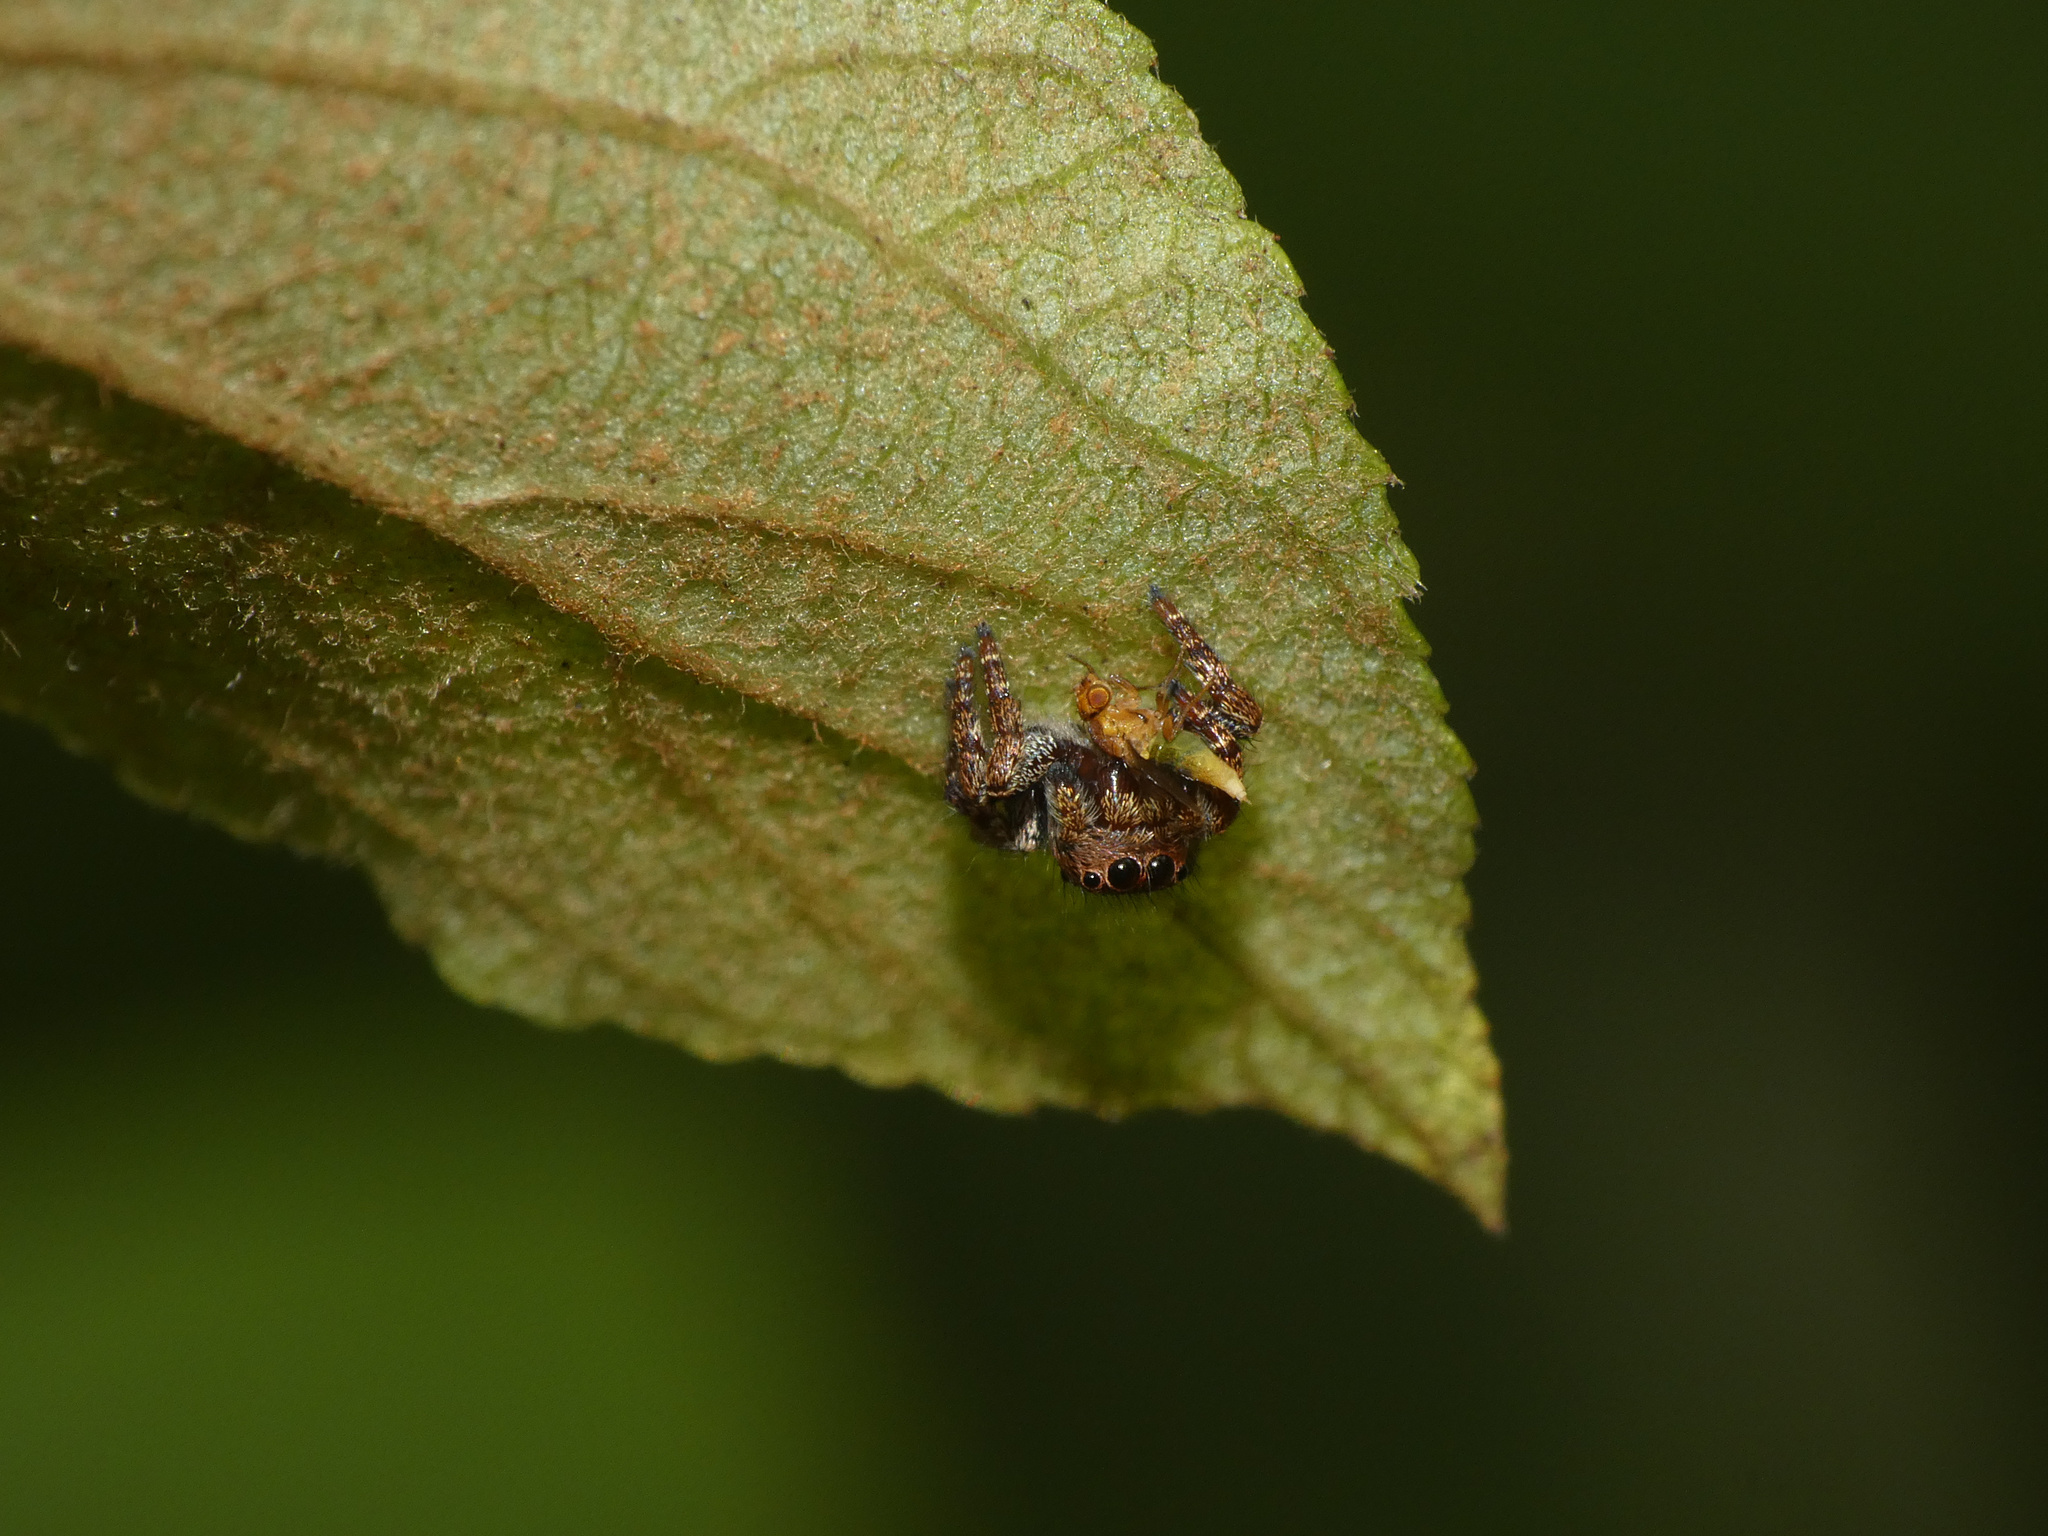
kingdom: Animalia
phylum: Arthropoda
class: Arachnida
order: Araneae
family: Salticidae
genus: Baryphas
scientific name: Baryphas ahenus
